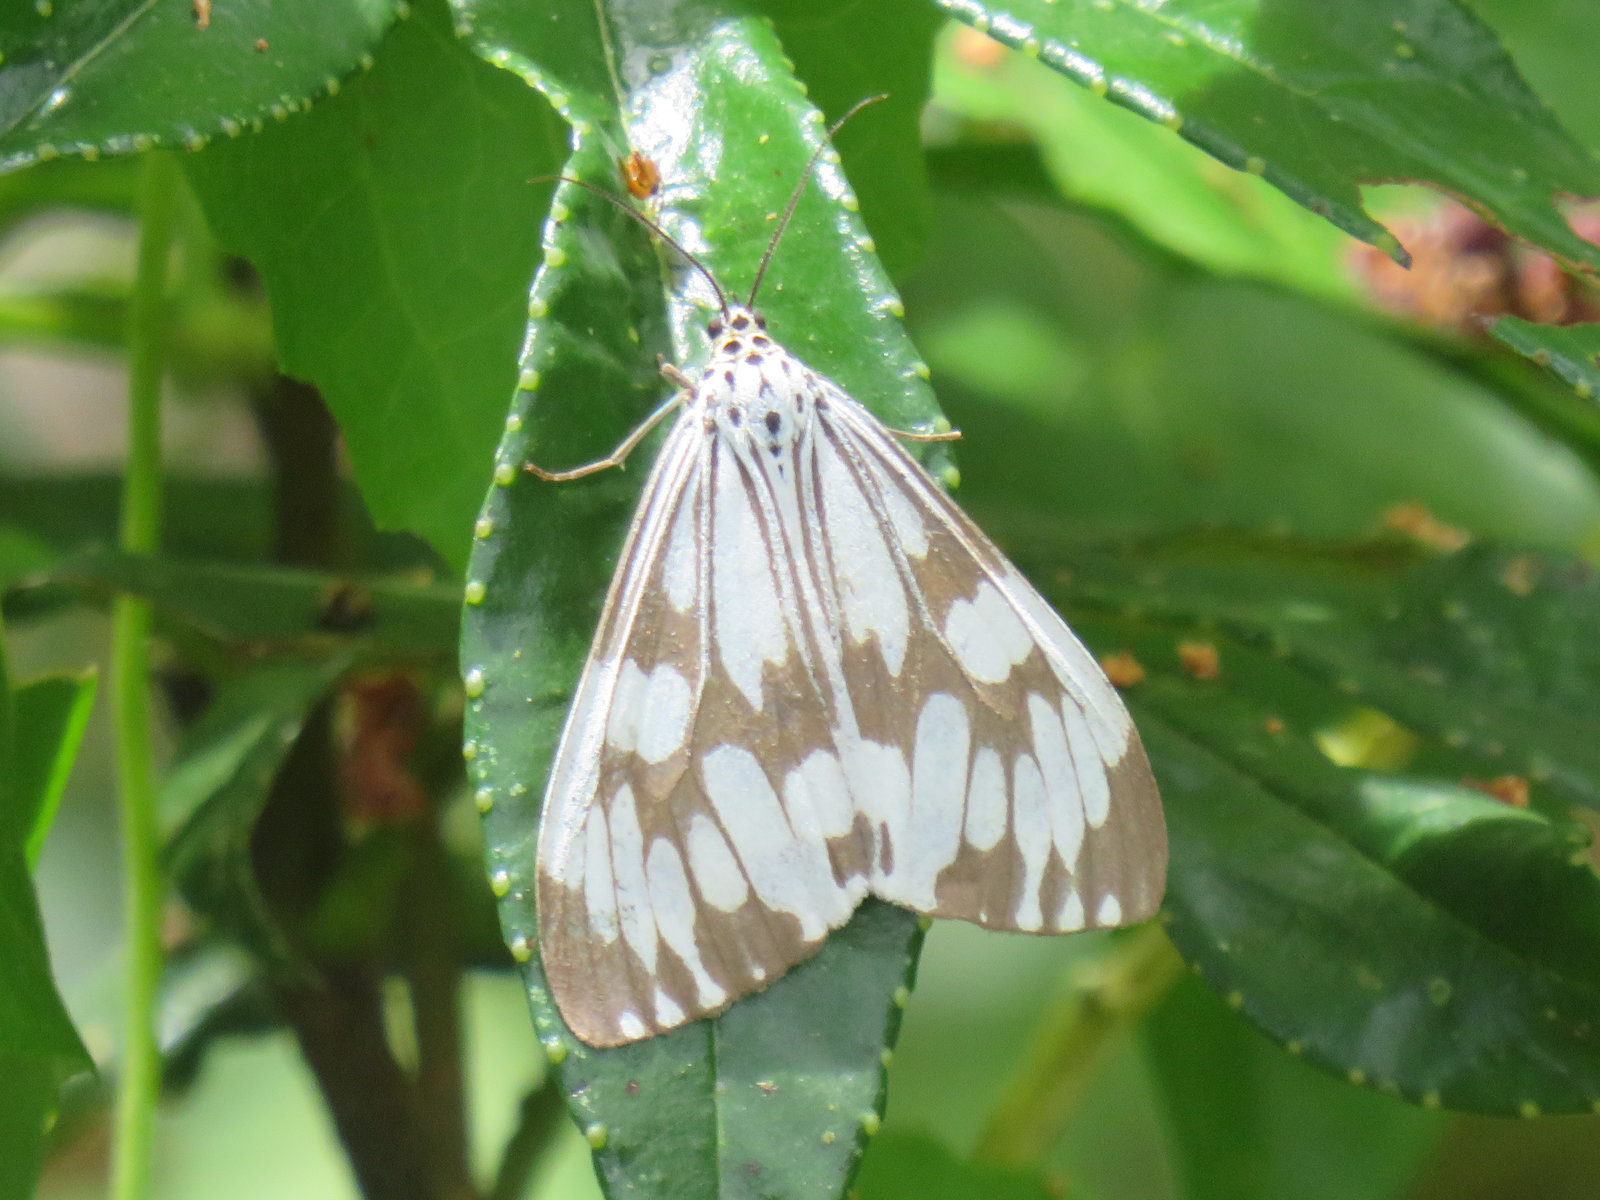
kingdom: Animalia
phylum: Arthropoda
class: Insecta
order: Lepidoptera
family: Erebidae
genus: Nyctemera
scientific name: Nyctemera adversata
